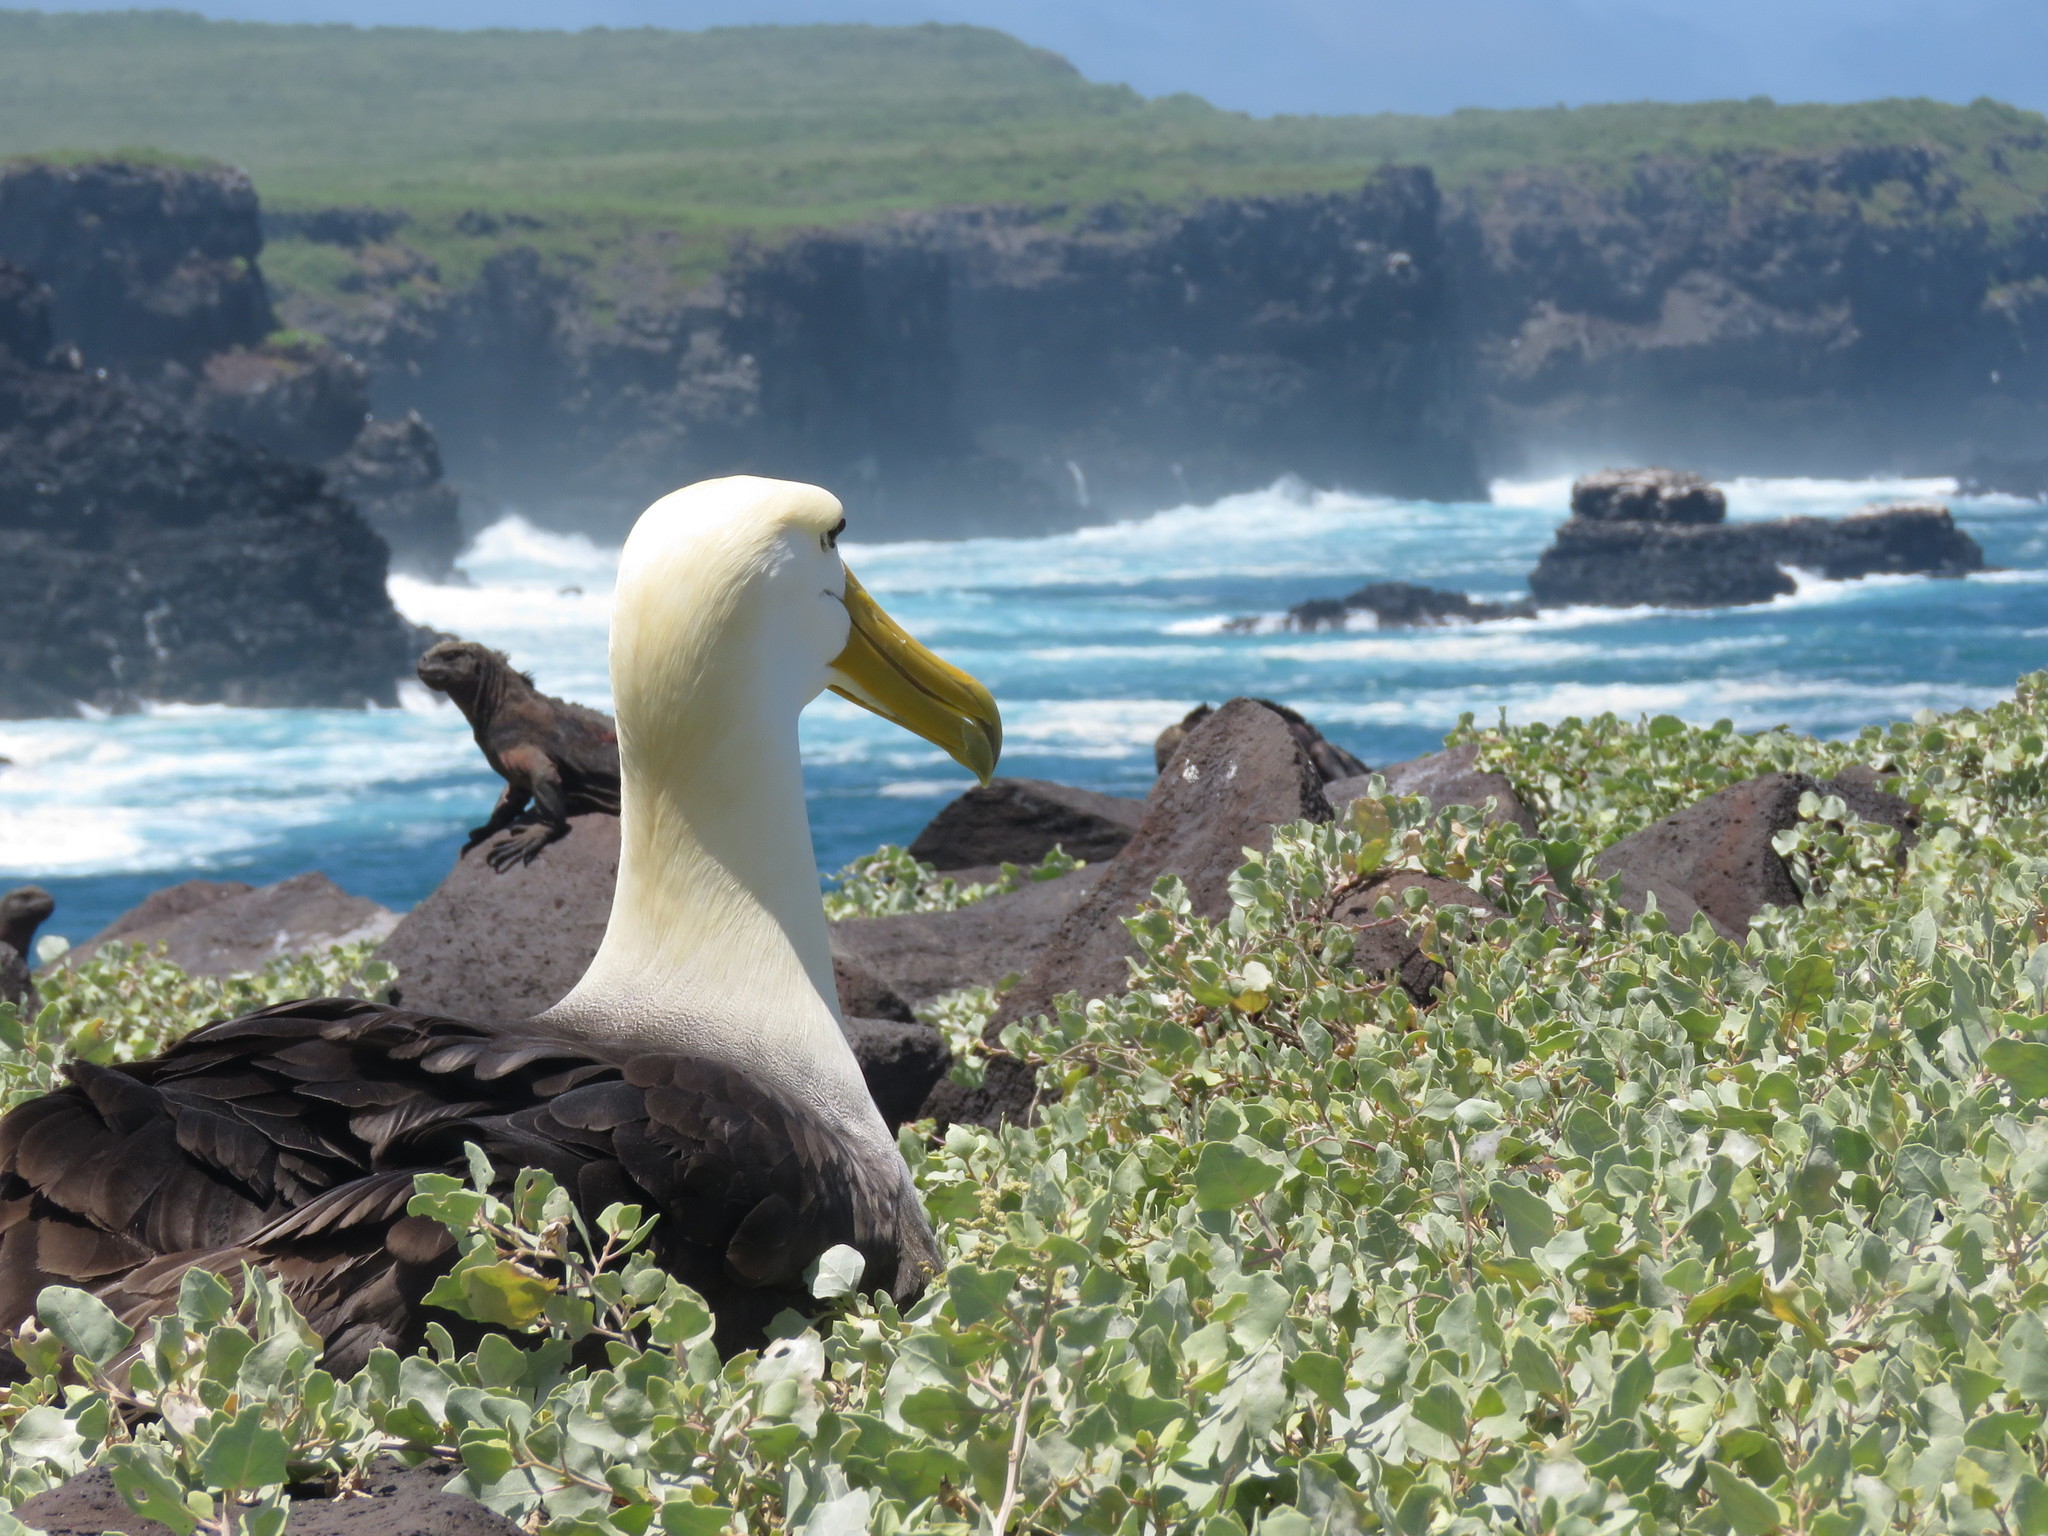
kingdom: Animalia
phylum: Chordata
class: Aves
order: Procellariiformes
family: Diomedeidae
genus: Phoebastria
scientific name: Phoebastria irrorata
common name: Waved albatross
